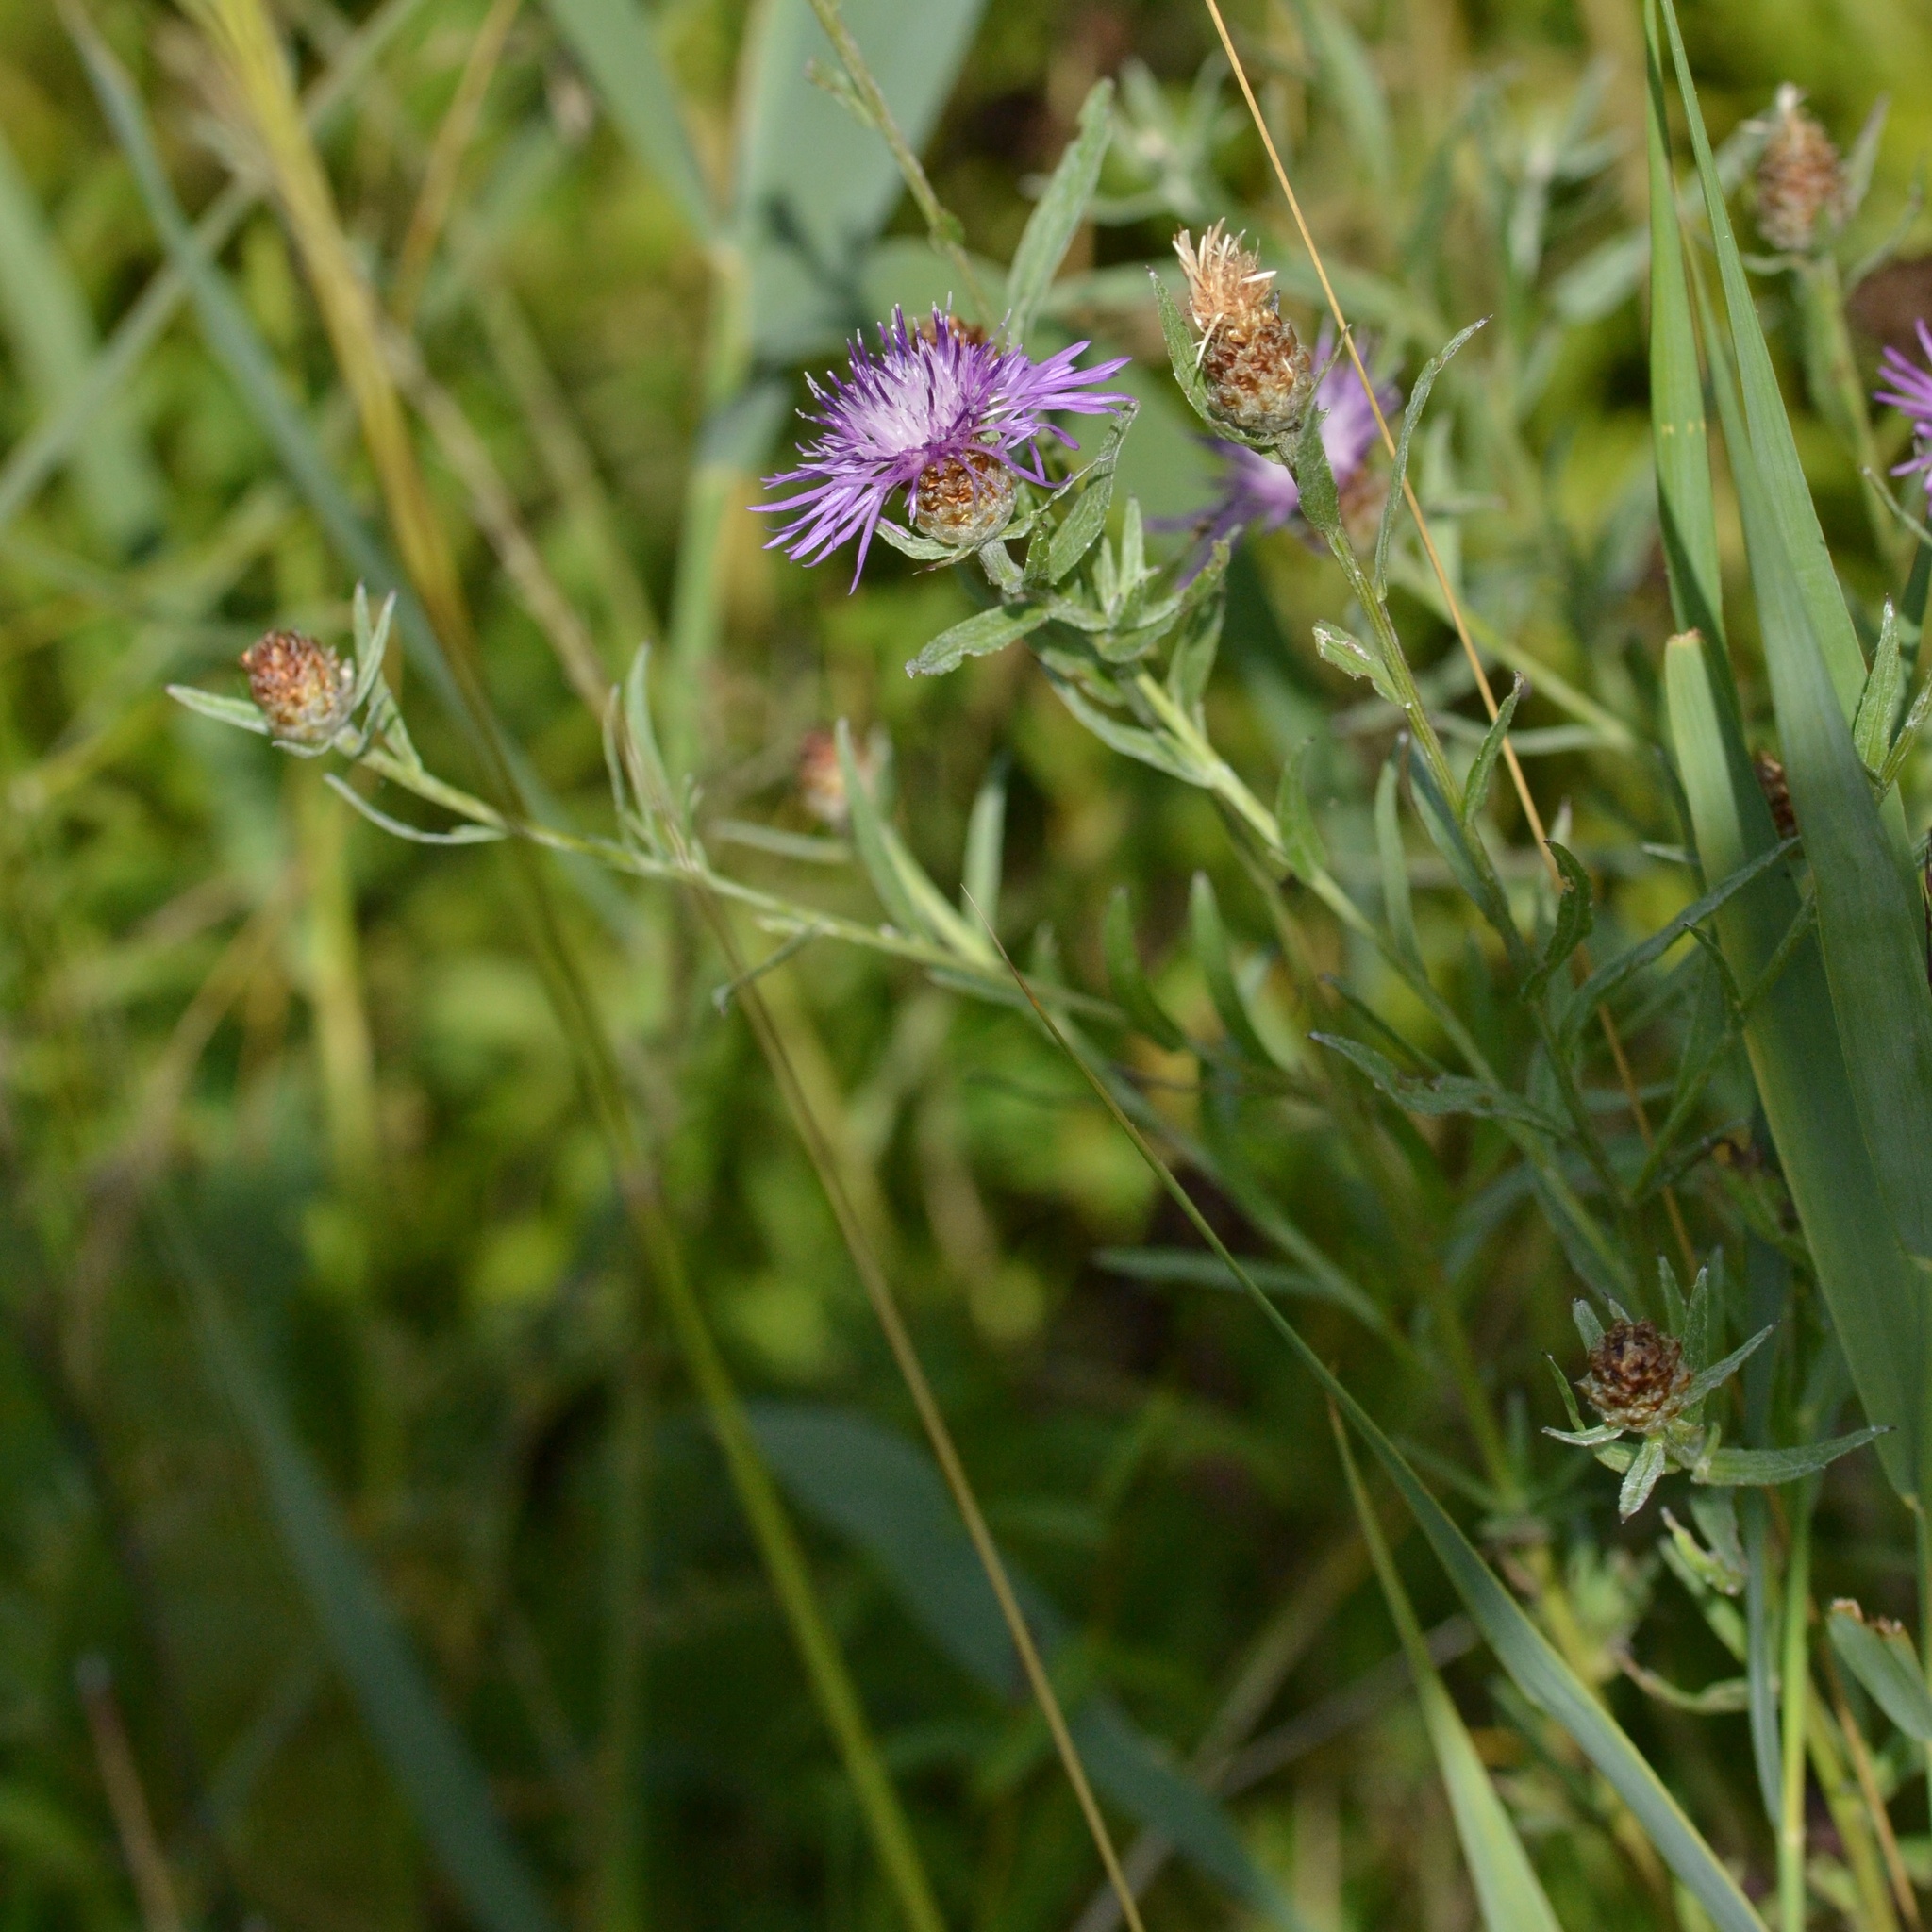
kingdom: Plantae
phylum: Tracheophyta
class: Magnoliopsida
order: Asterales
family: Asteraceae
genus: Centaurea
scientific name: Centaurea jacea
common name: Brown knapweed
